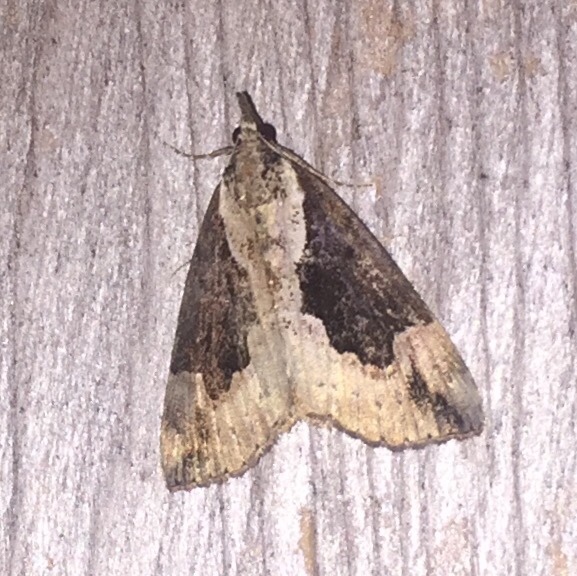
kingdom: Animalia
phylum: Arthropoda
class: Insecta
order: Lepidoptera
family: Erebidae
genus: Hypena
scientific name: Hypena baltimoralis
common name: Baltimore snout
